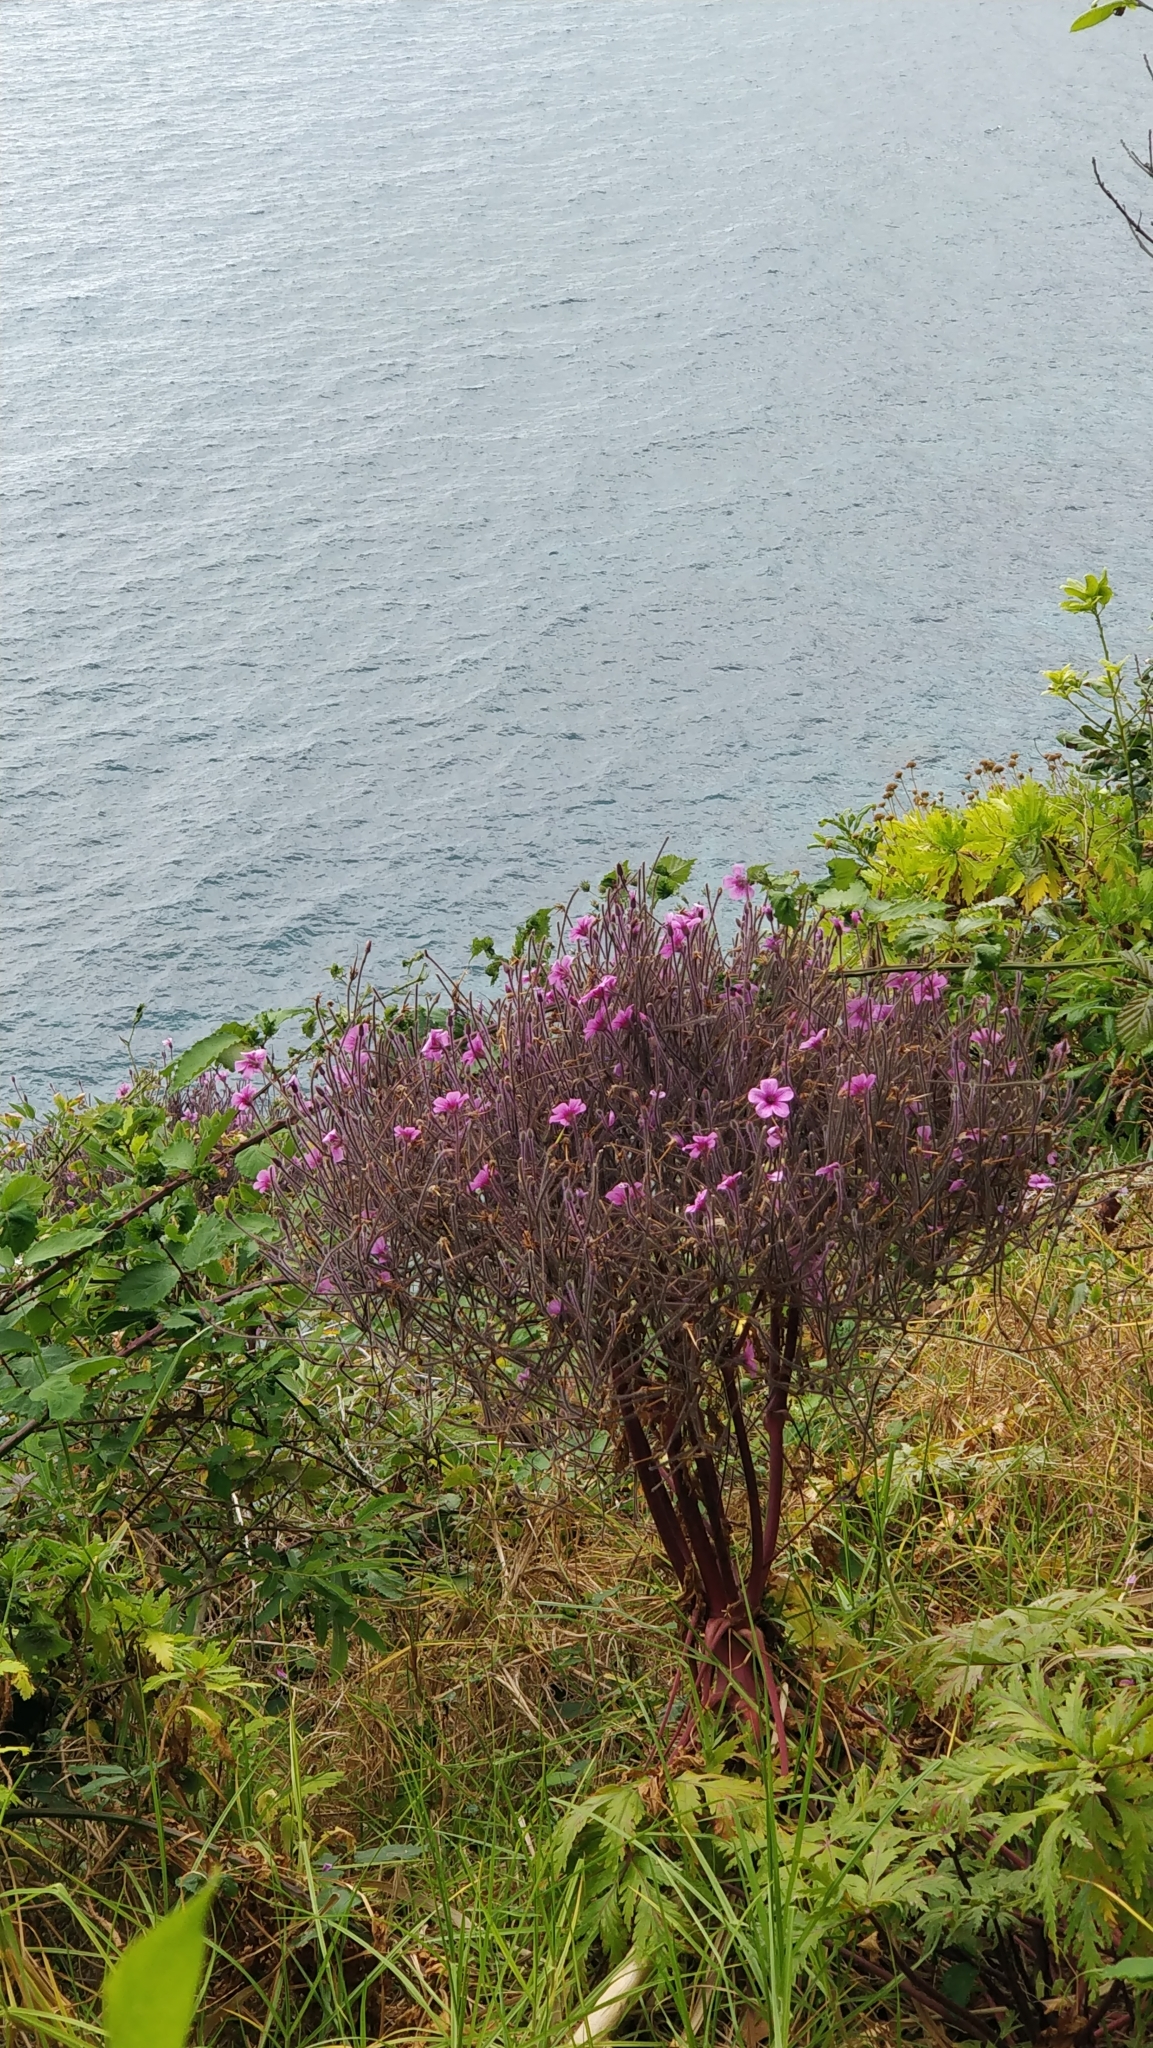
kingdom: Plantae
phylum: Tracheophyta
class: Magnoliopsida
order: Geraniales
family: Geraniaceae
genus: Geranium
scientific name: Geranium maderense
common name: Giant herb-robert
